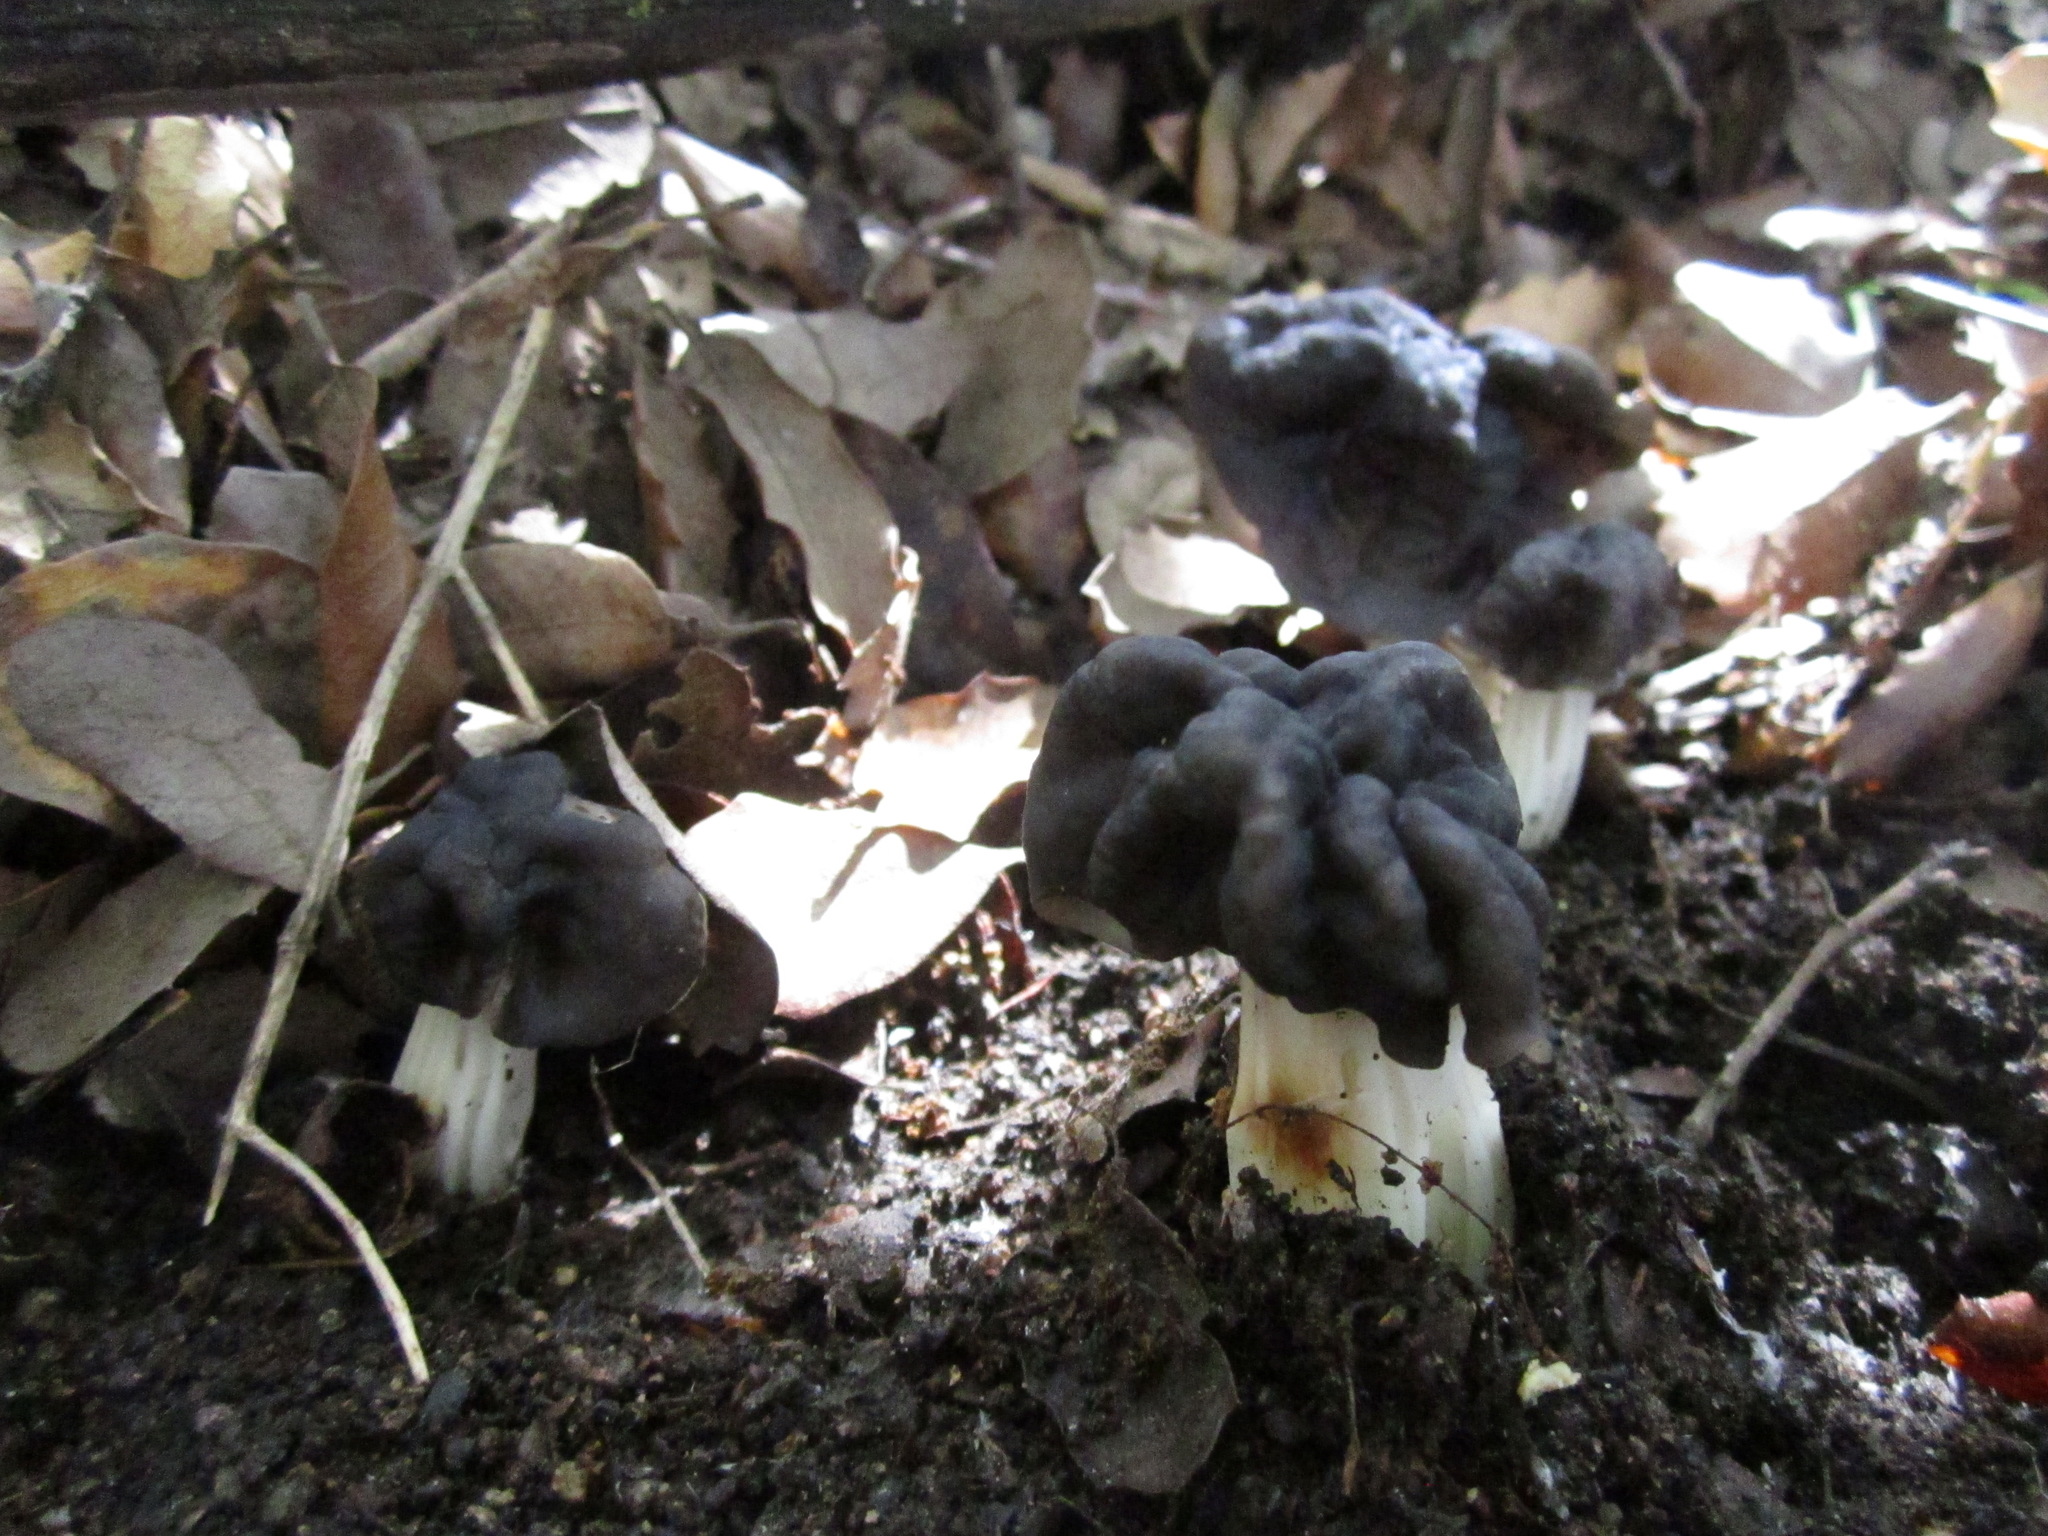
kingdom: Fungi
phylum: Ascomycota
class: Pezizomycetes
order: Pezizales
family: Helvellaceae
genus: Helvella
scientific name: Helvella dryophila
